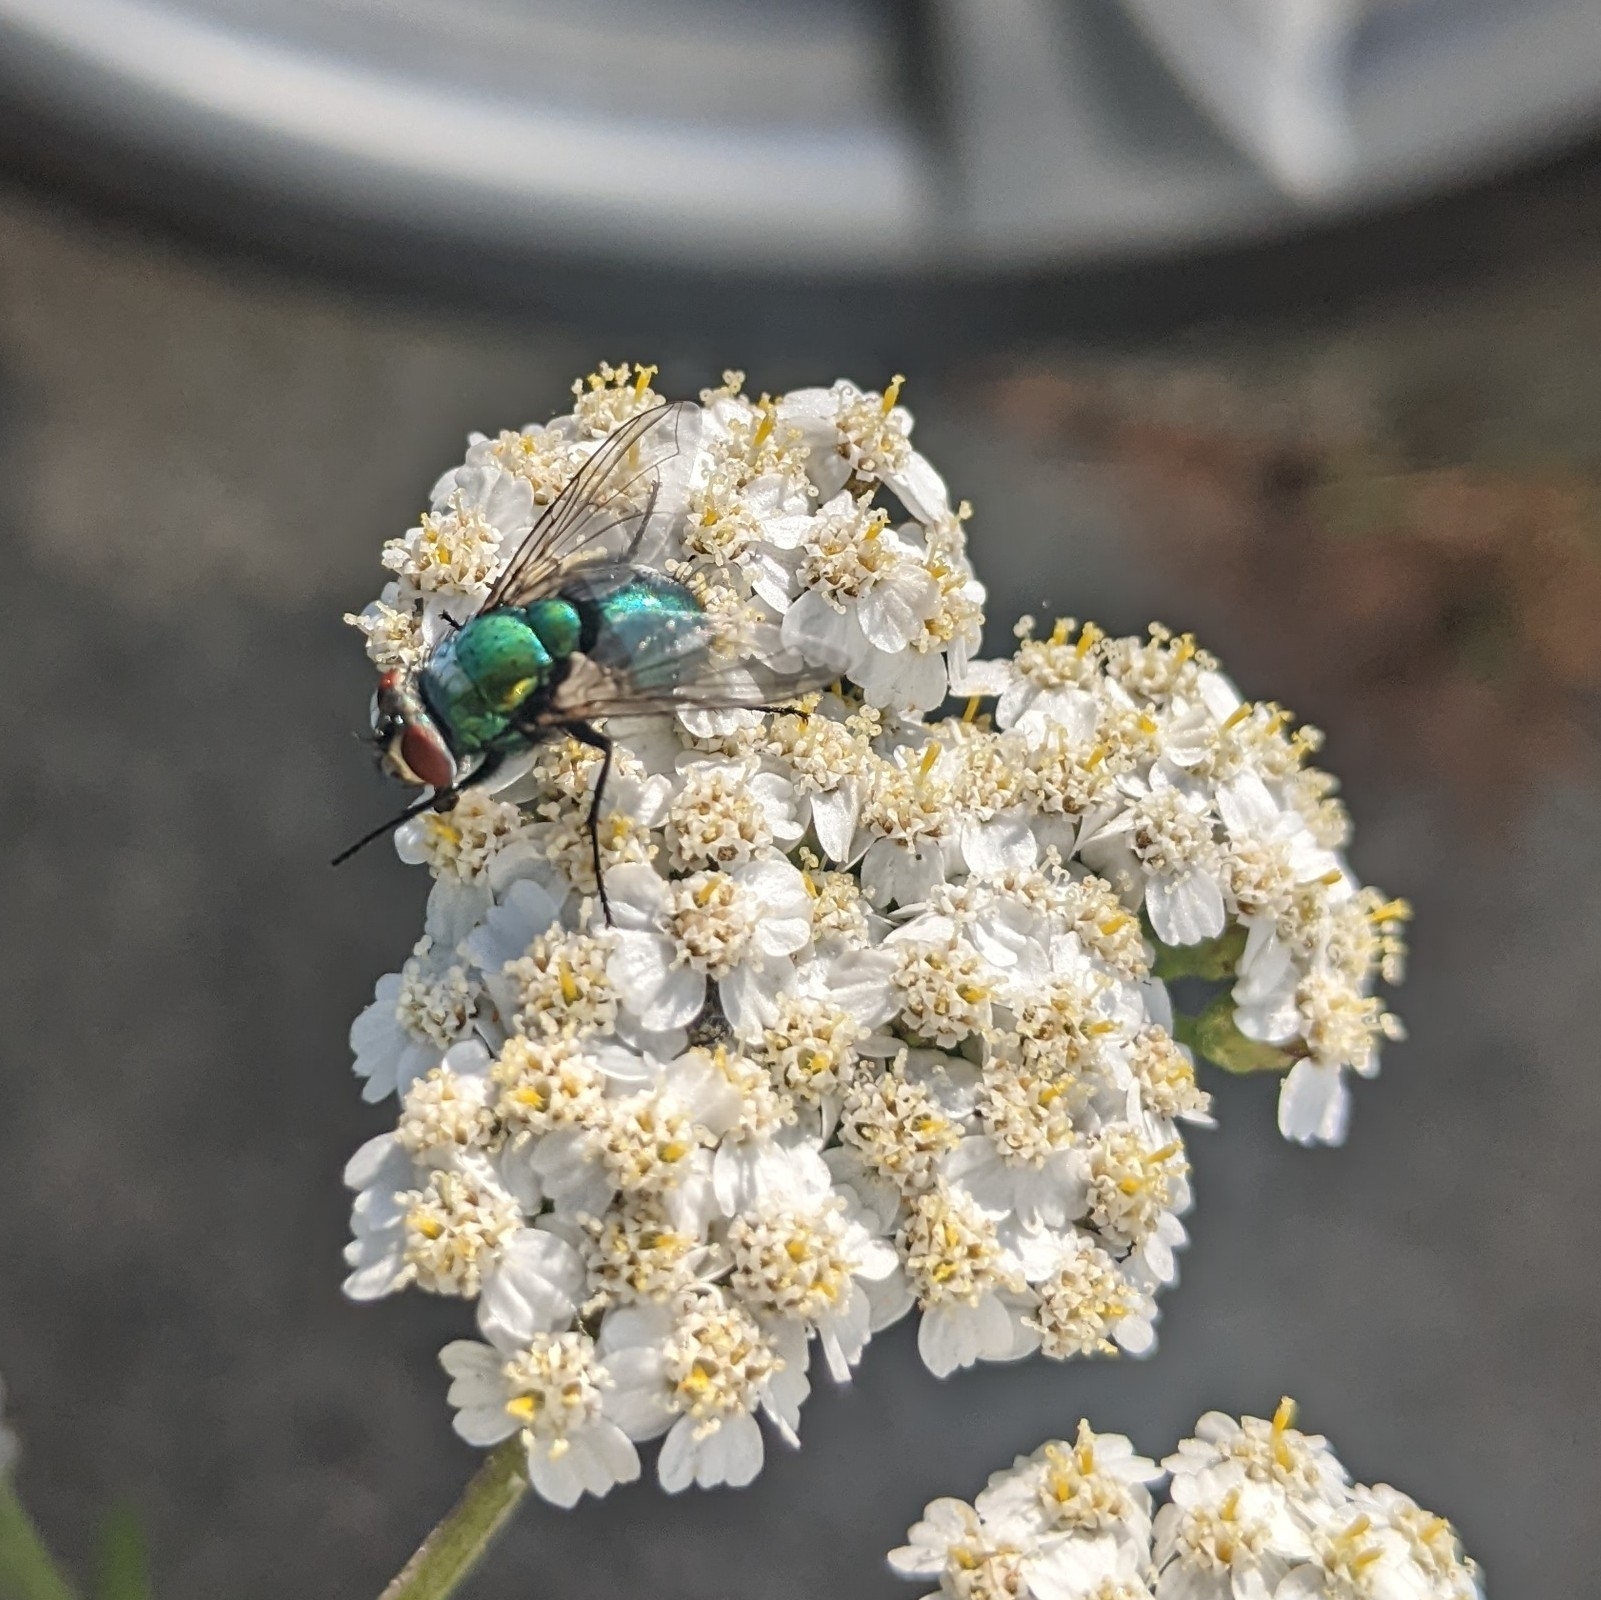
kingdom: Animalia
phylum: Arthropoda
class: Insecta
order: Diptera
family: Calliphoridae
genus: Lucilia
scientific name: Lucilia sericata
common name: Blow fly
